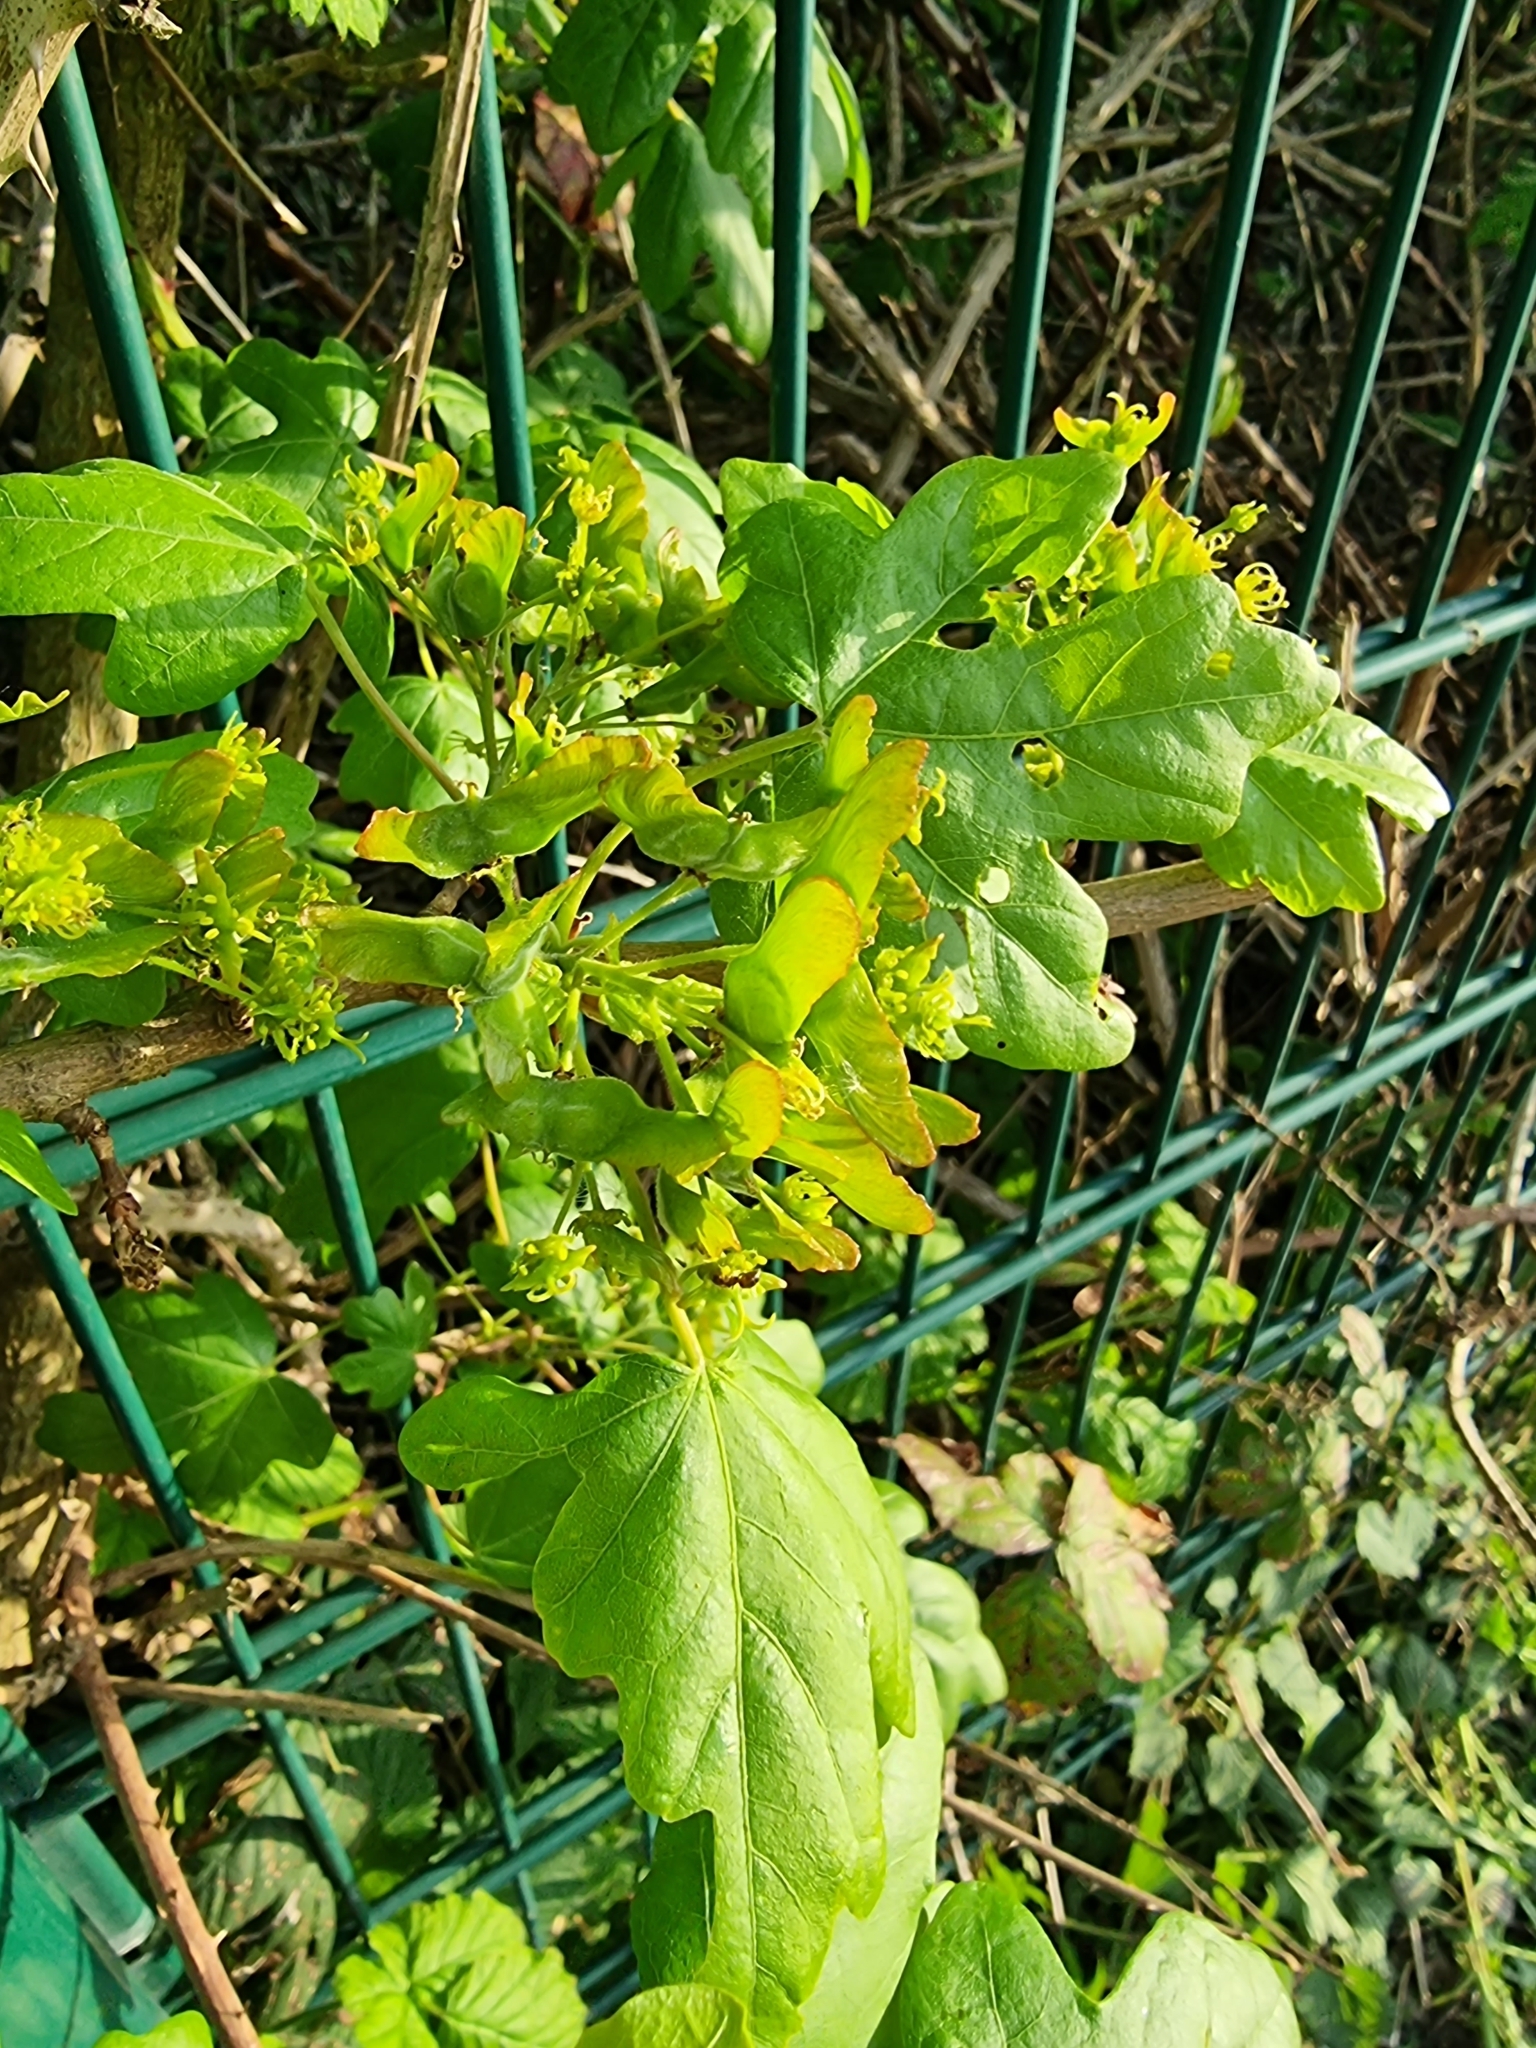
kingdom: Plantae
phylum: Tracheophyta
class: Magnoliopsida
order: Sapindales
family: Sapindaceae
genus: Acer
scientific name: Acer campestre
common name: Field maple
